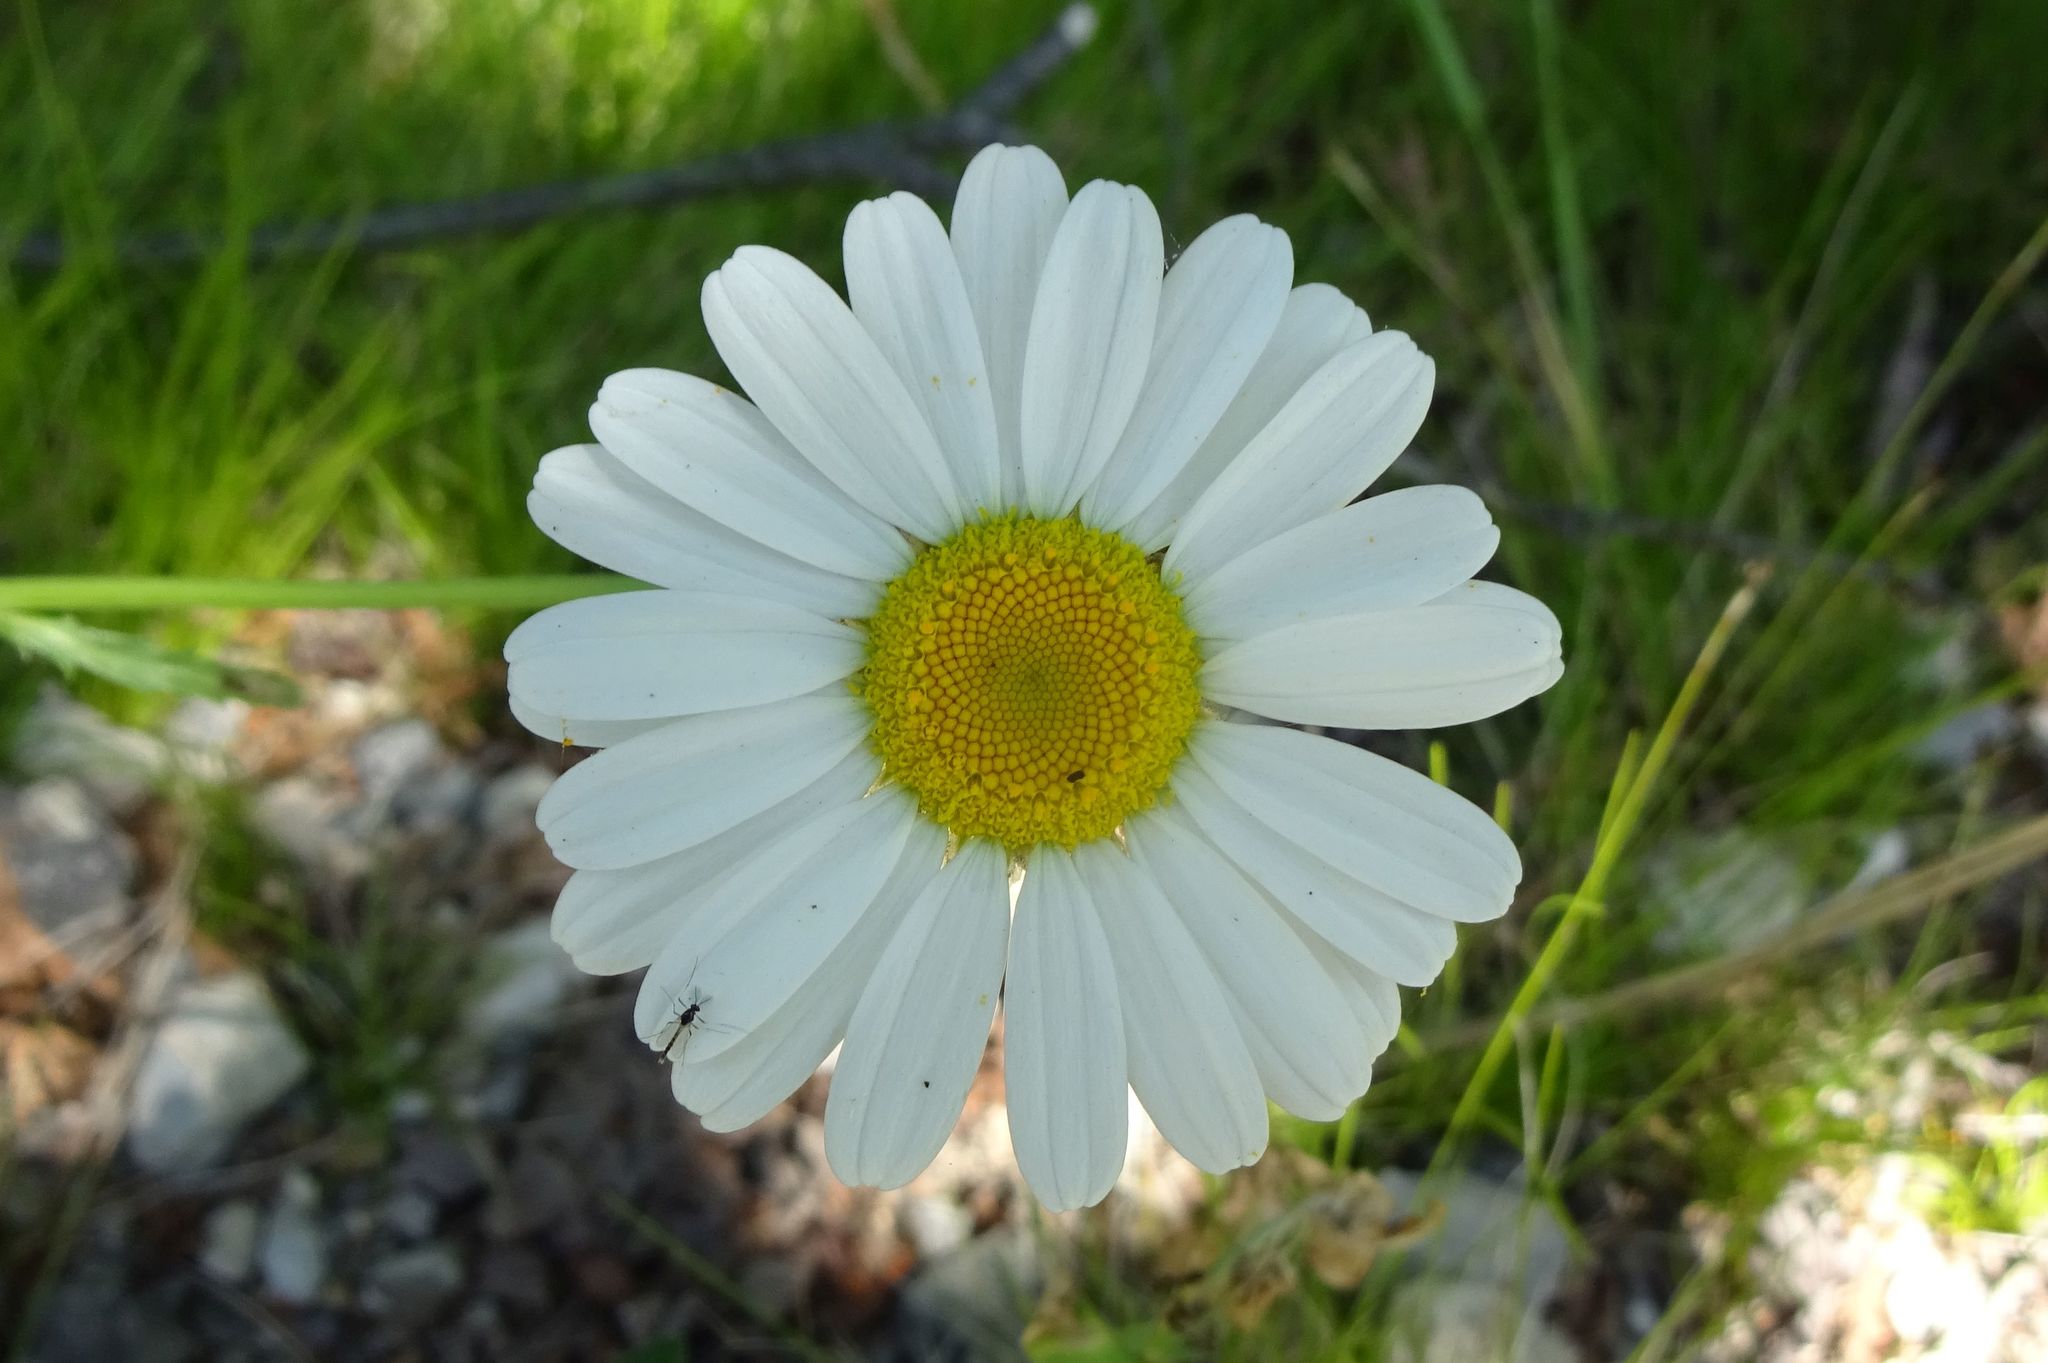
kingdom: Plantae
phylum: Tracheophyta
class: Magnoliopsida
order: Asterales
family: Asteraceae
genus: Leucanthemum
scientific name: Leucanthemum vulgare
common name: Oxeye daisy
